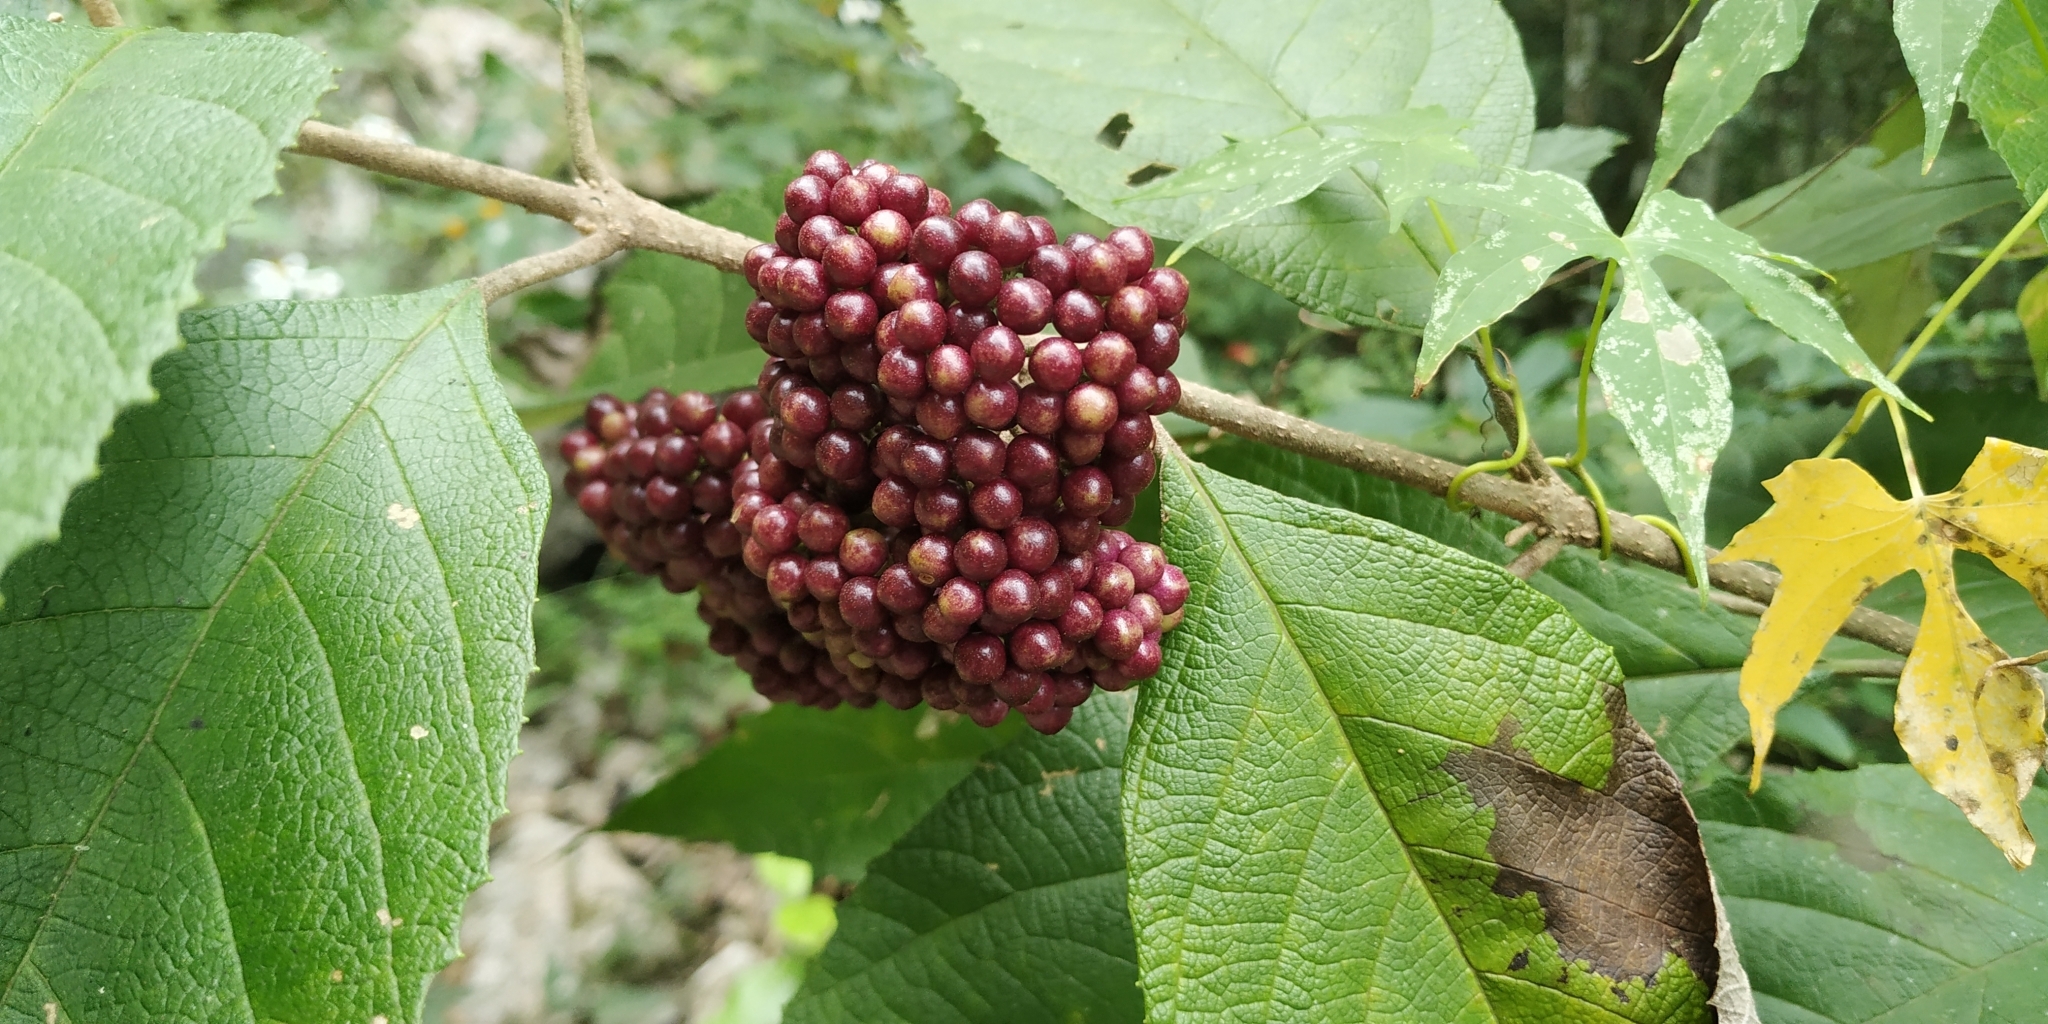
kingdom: Plantae
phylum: Tracheophyta
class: Magnoliopsida
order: Lamiales
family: Lamiaceae
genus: Callicarpa
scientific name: Callicarpa acuminata
